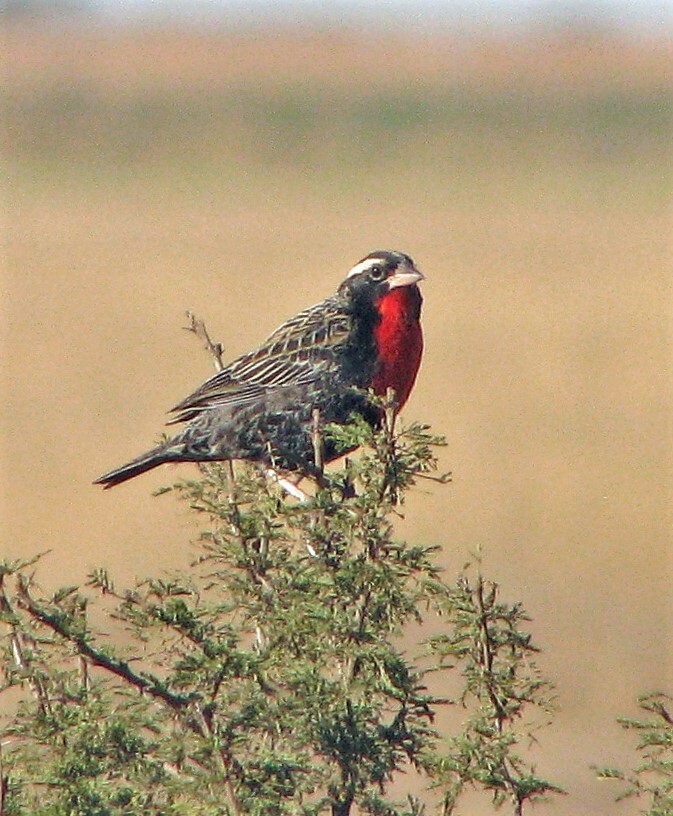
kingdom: Animalia
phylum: Chordata
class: Aves
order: Passeriformes
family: Icteridae
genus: Sturnella
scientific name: Sturnella superciliaris
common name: White-browed blackbird
